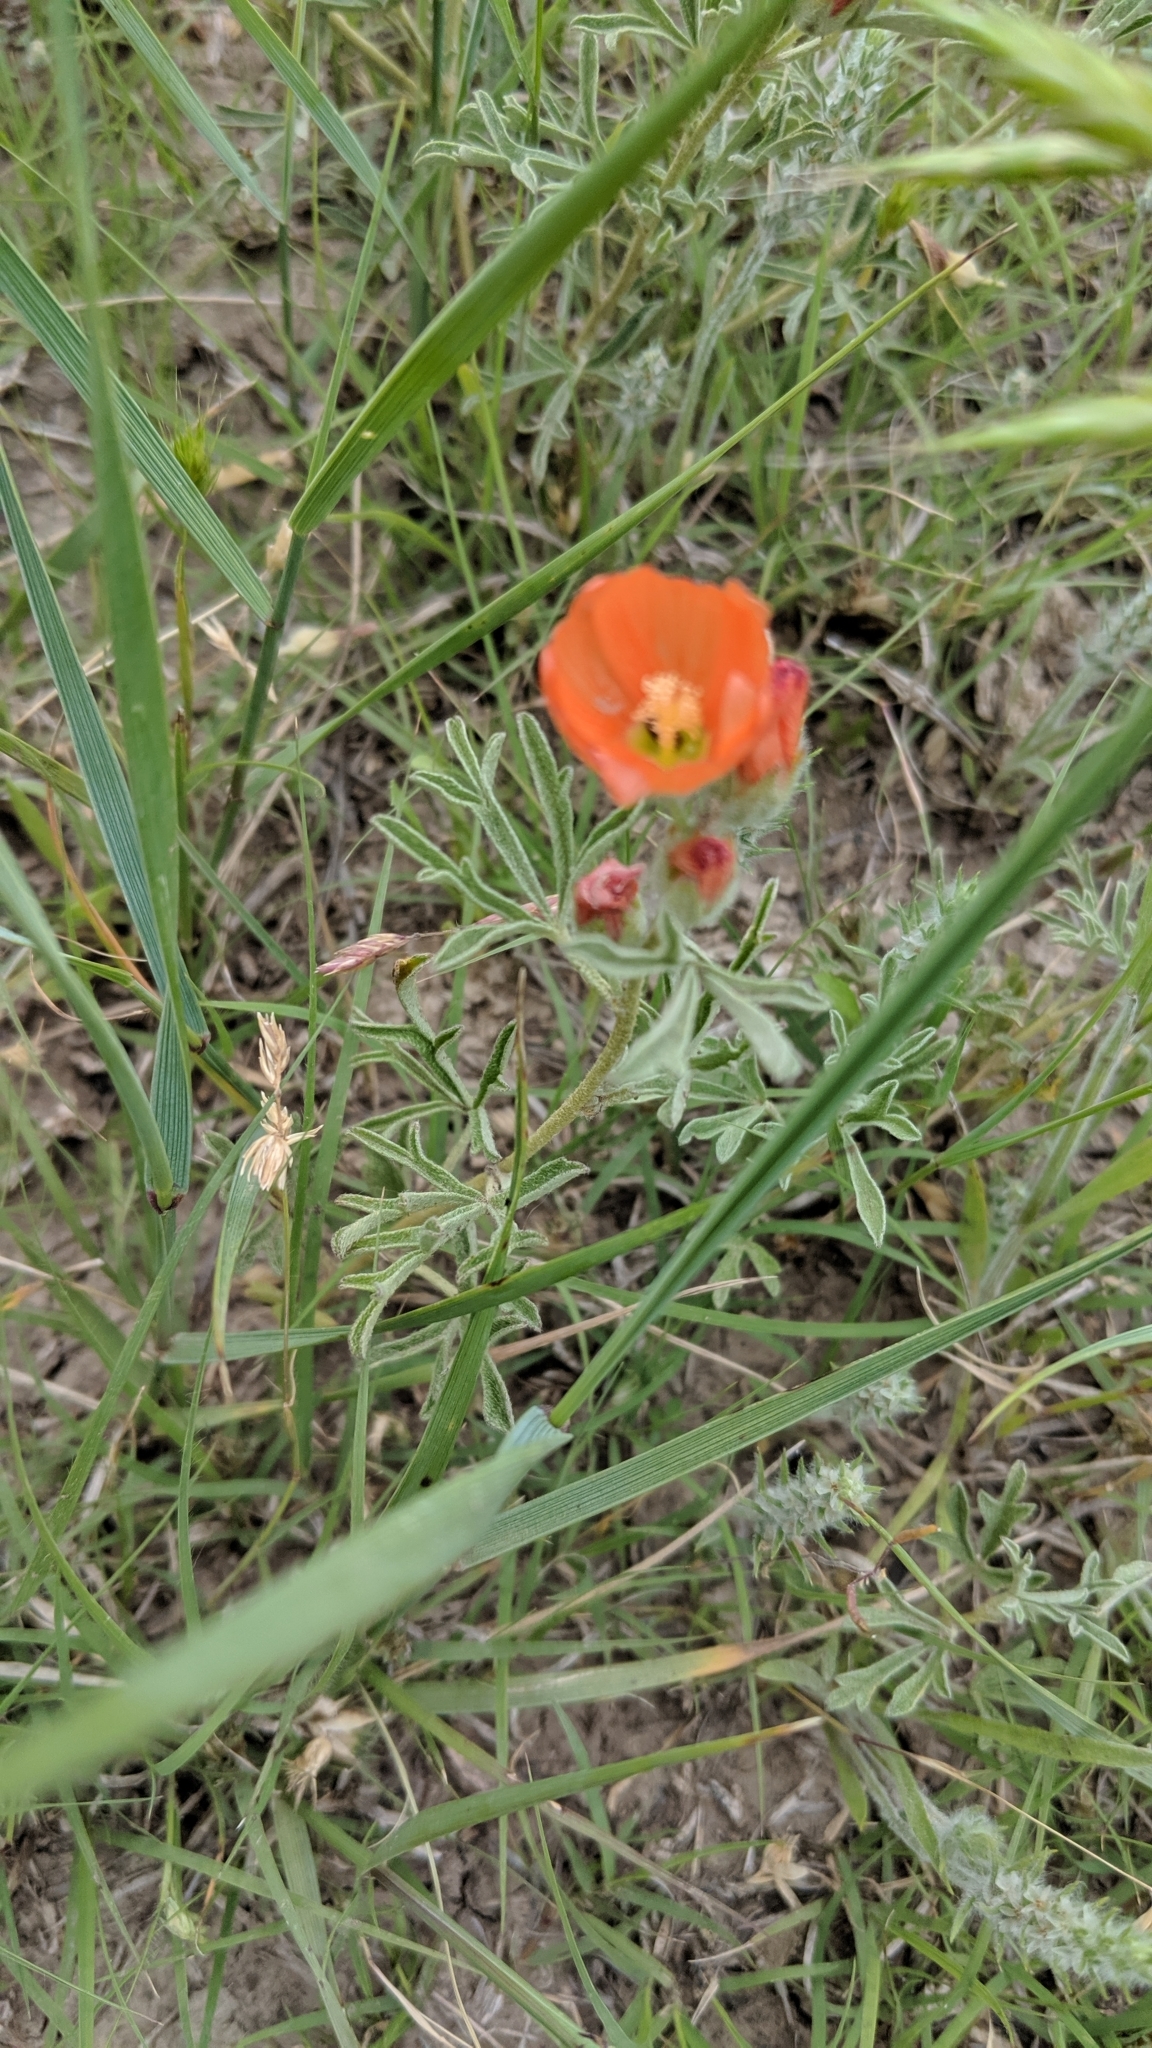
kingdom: Plantae
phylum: Tracheophyta
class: Magnoliopsida
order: Malvales
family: Malvaceae
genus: Sphaeralcea
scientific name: Sphaeralcea coccinea
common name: Moss-rose
